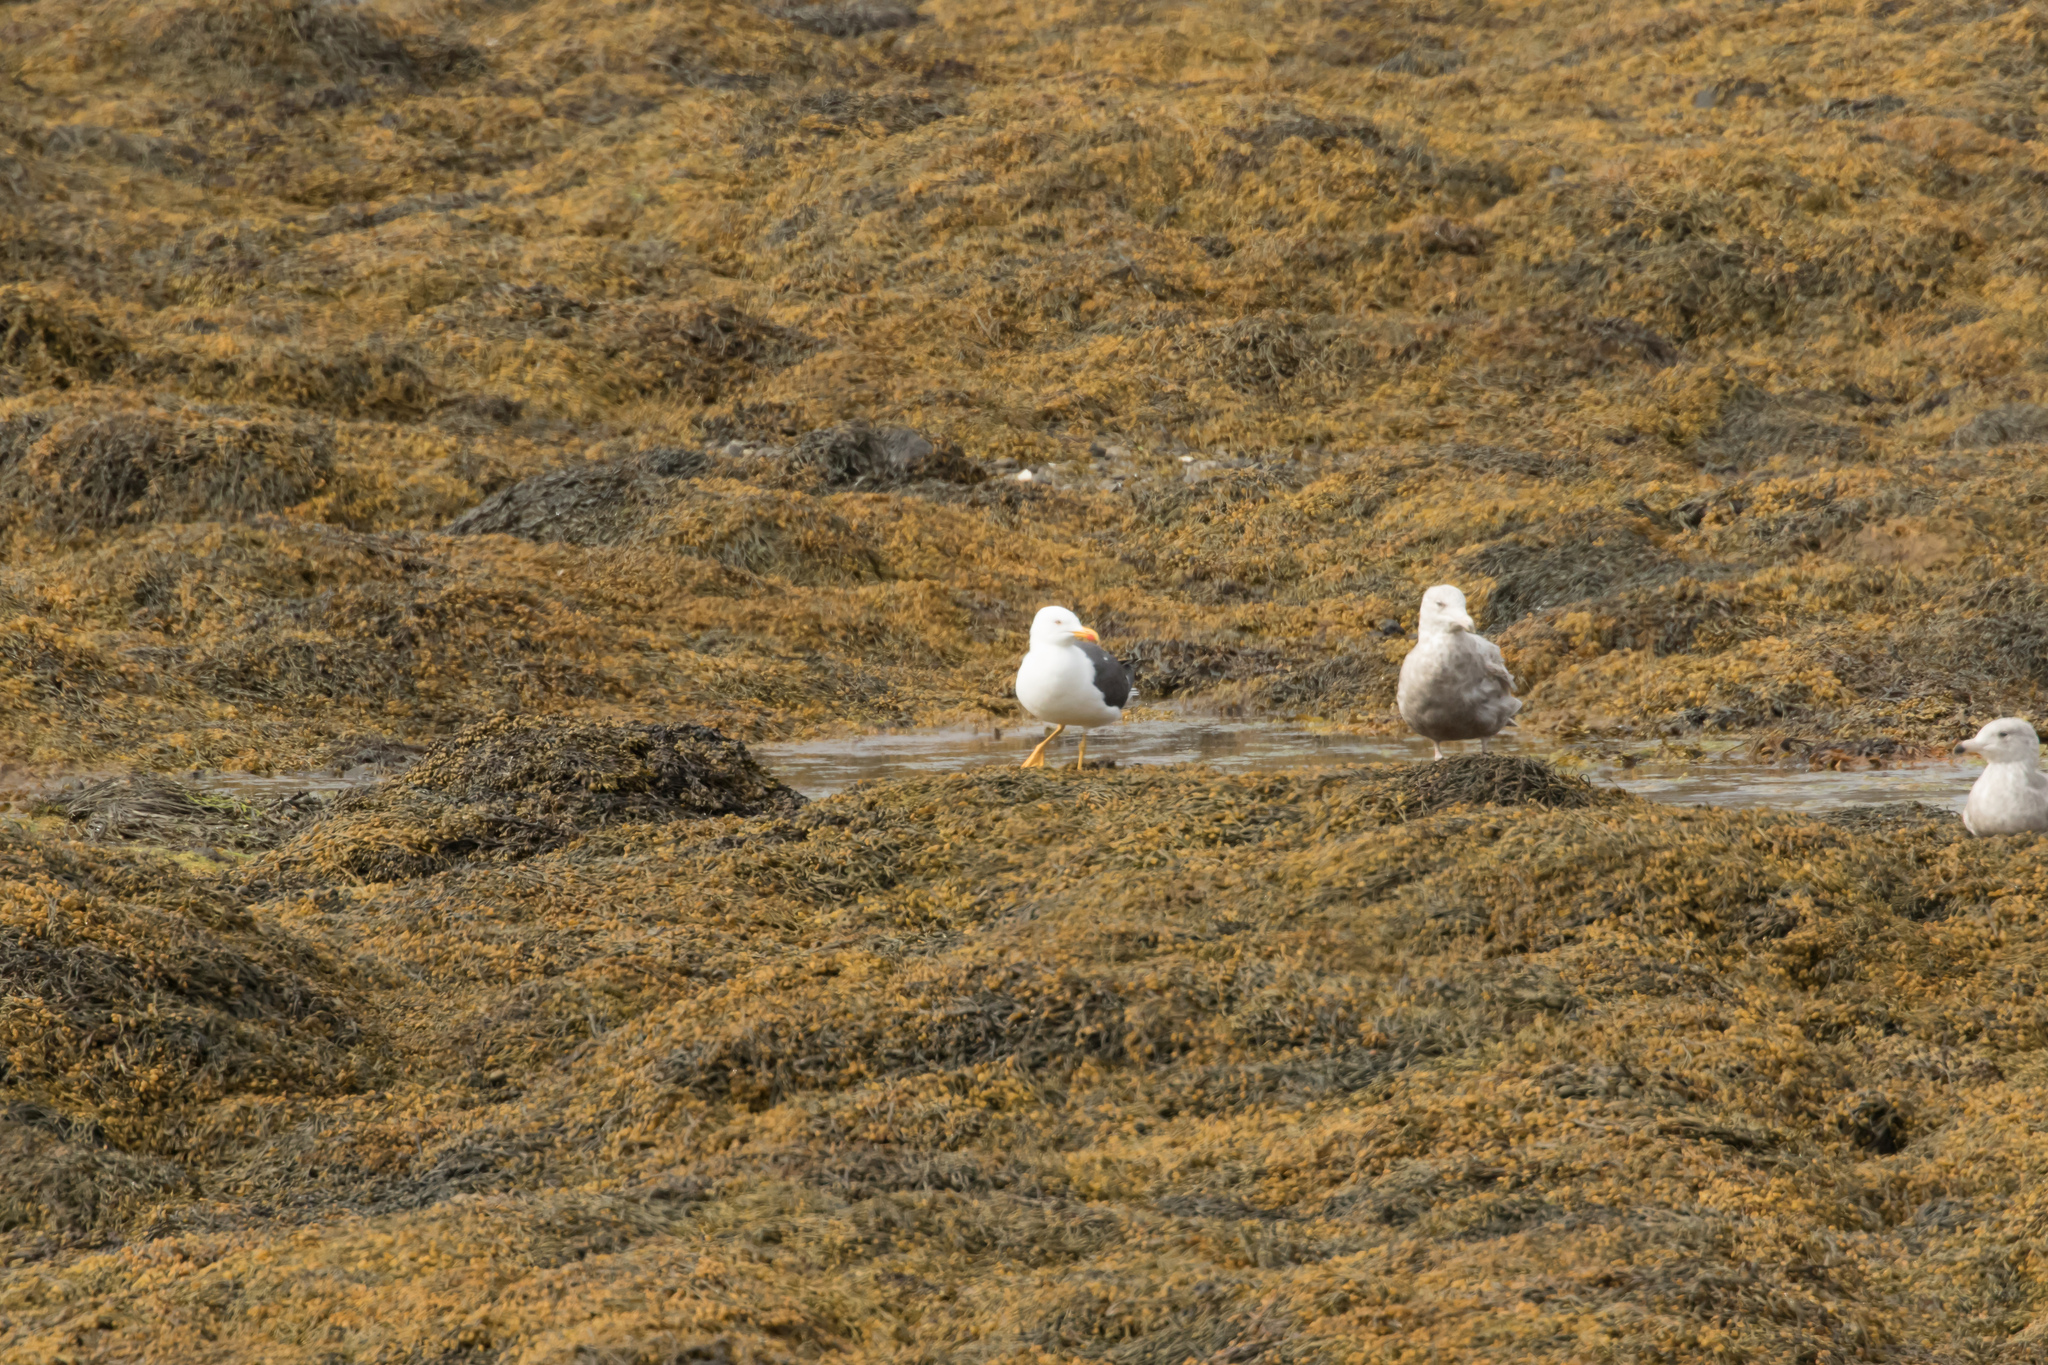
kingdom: Animalia
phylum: Chordata
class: Aves
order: Charadriiformes
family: Laridae
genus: Larus
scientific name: Larus fuscus
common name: Lesser black-backed gull
